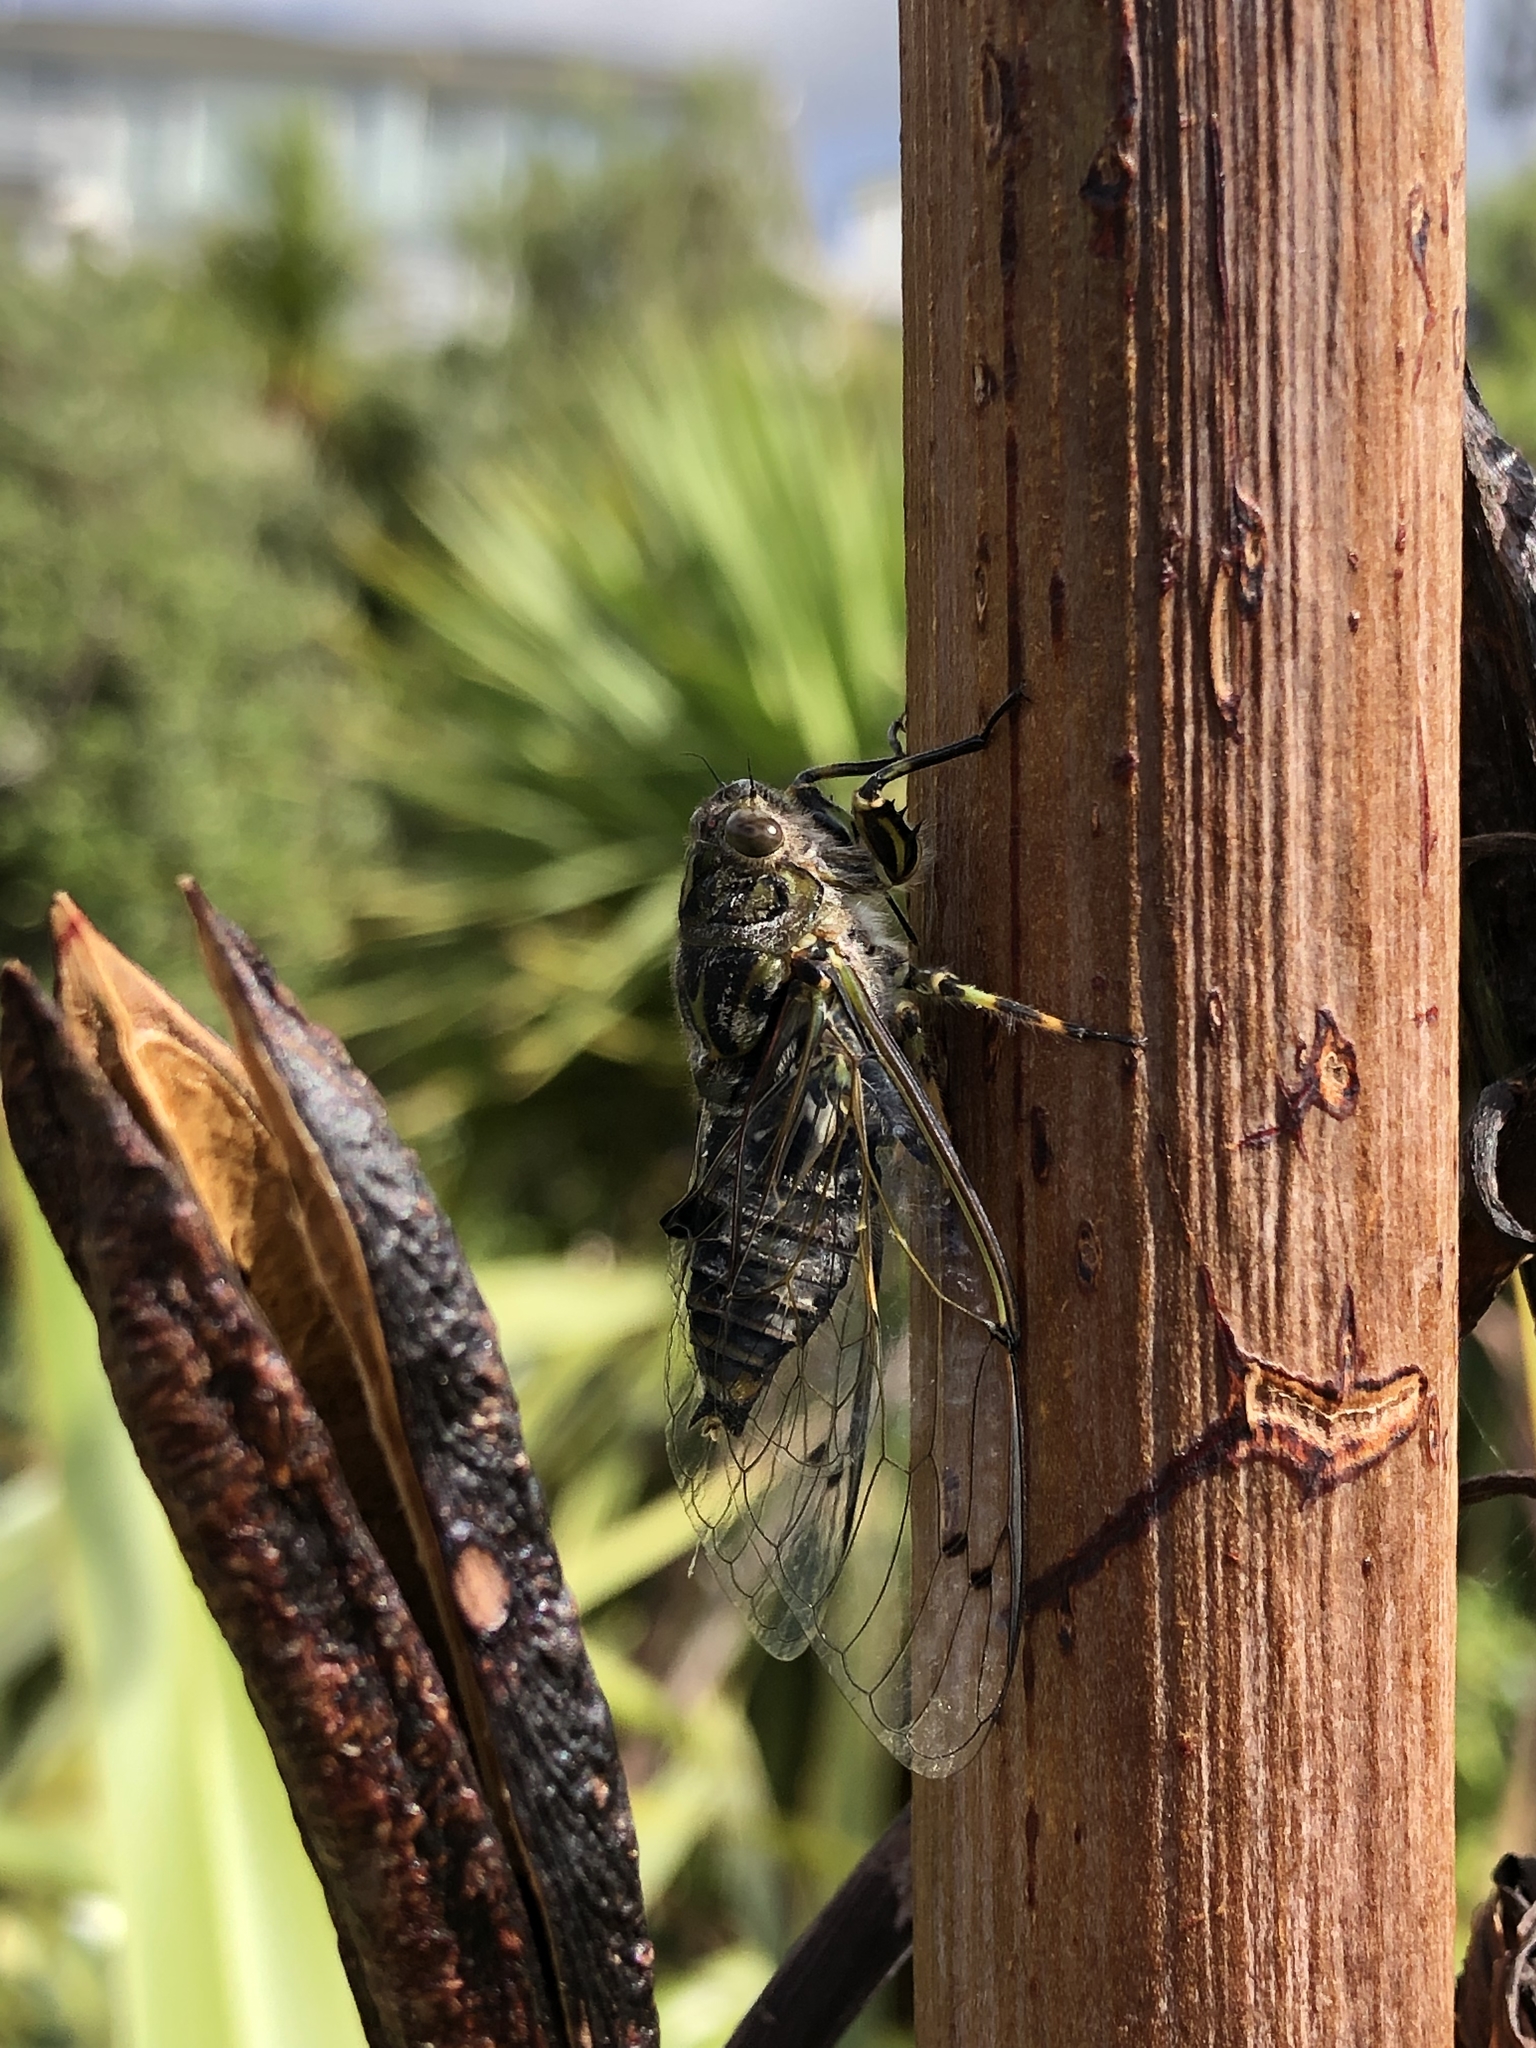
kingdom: Animalia
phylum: Arthropoda
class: Insecta
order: Hemiptera
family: Cicadidae
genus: Amphipsalta
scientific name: Amphipsalta cingulata
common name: Clapping cicada
